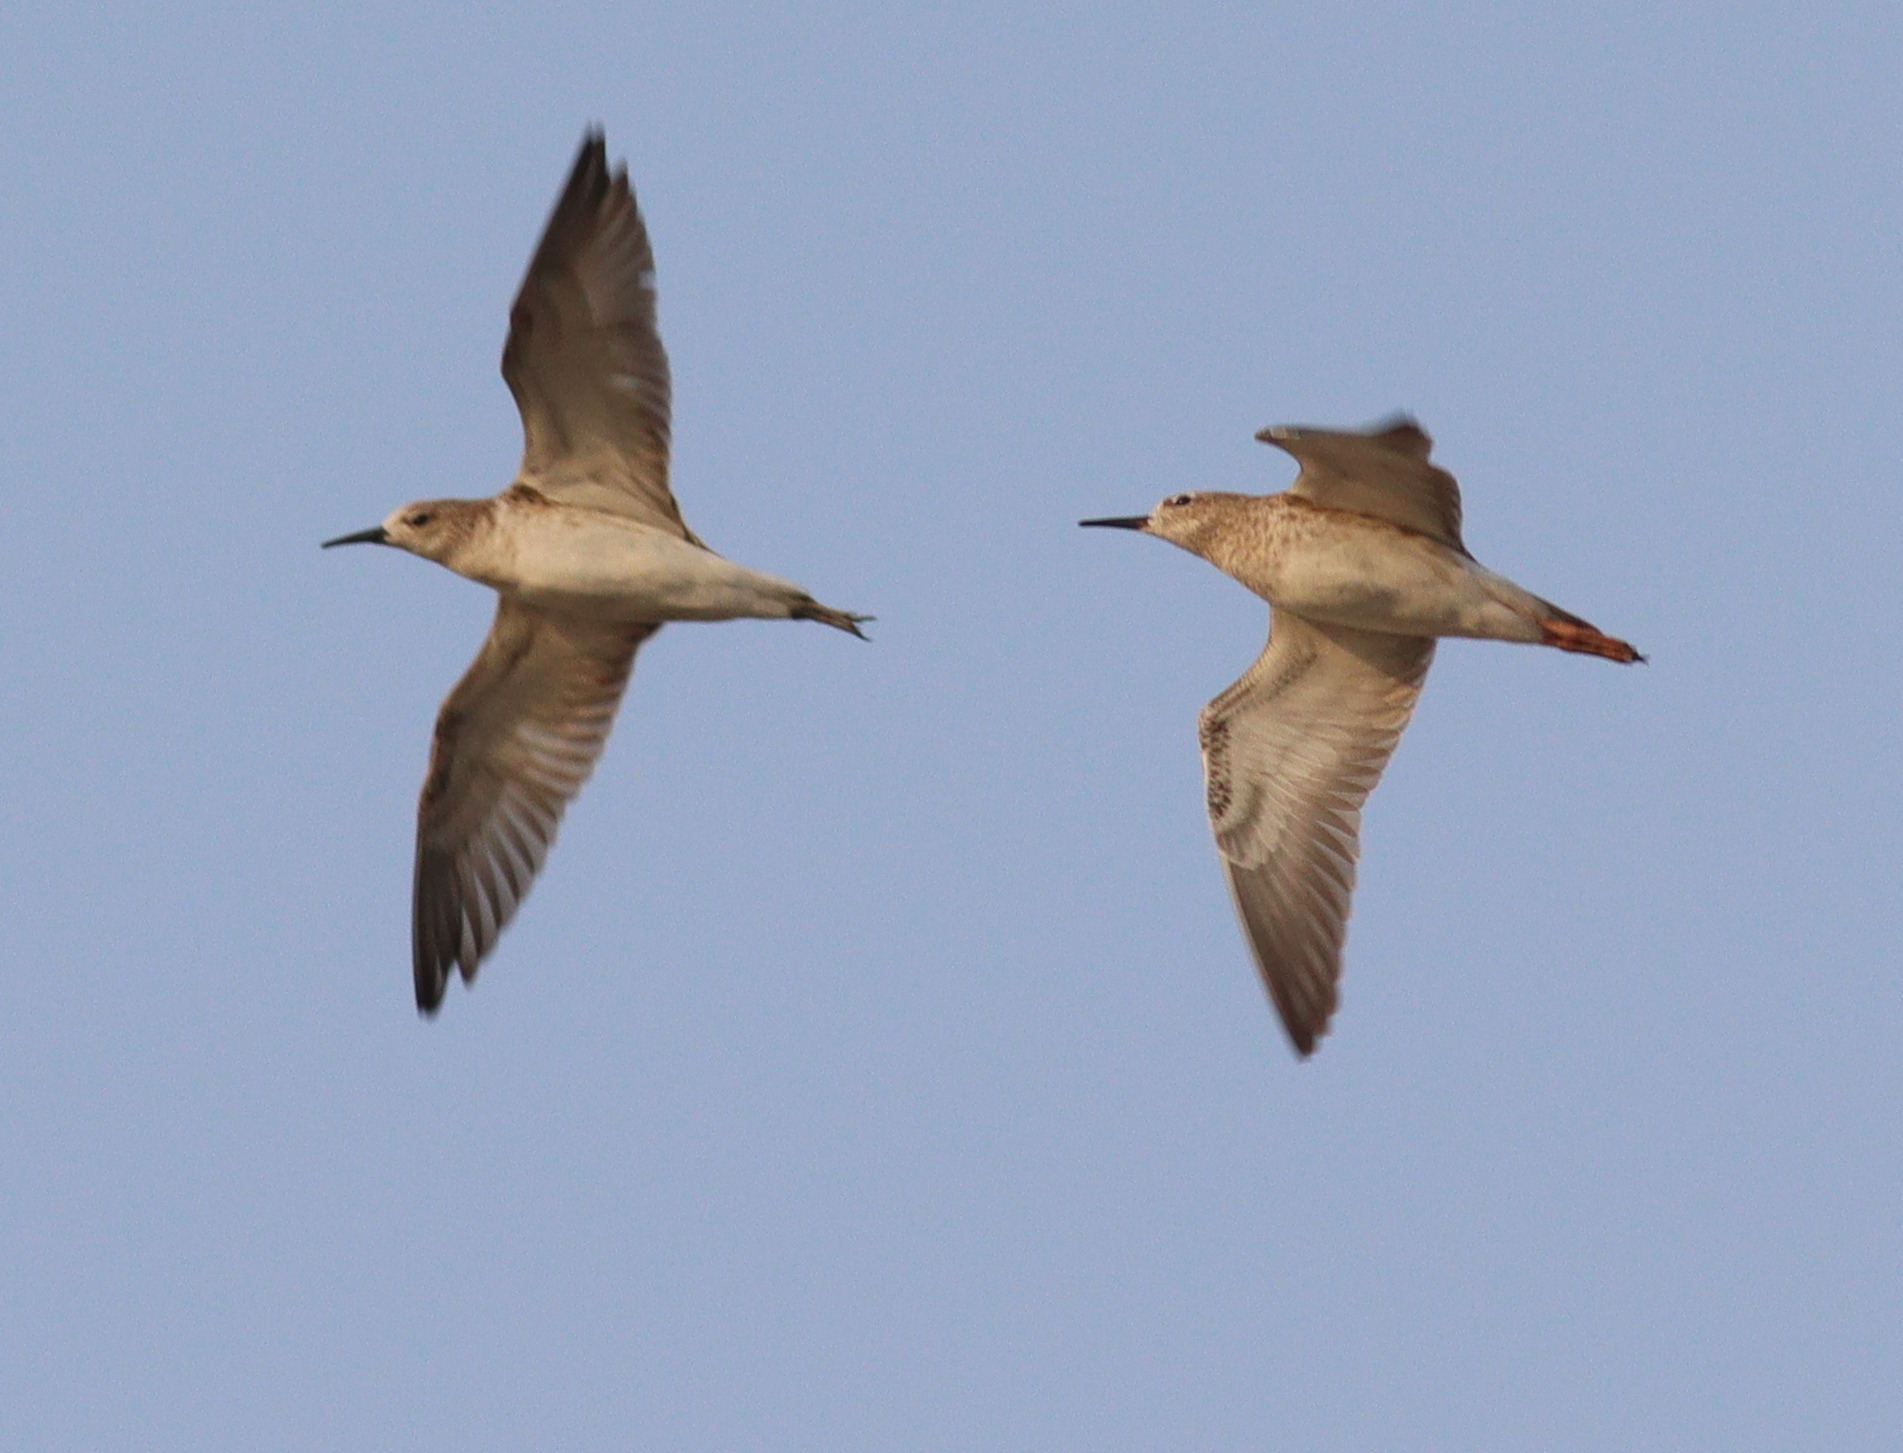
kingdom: Animalia
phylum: Chordata
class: Aves
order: Charadriiformes
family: Scolopacidae
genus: Calidris
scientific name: Calidris pugnax
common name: Ruff
